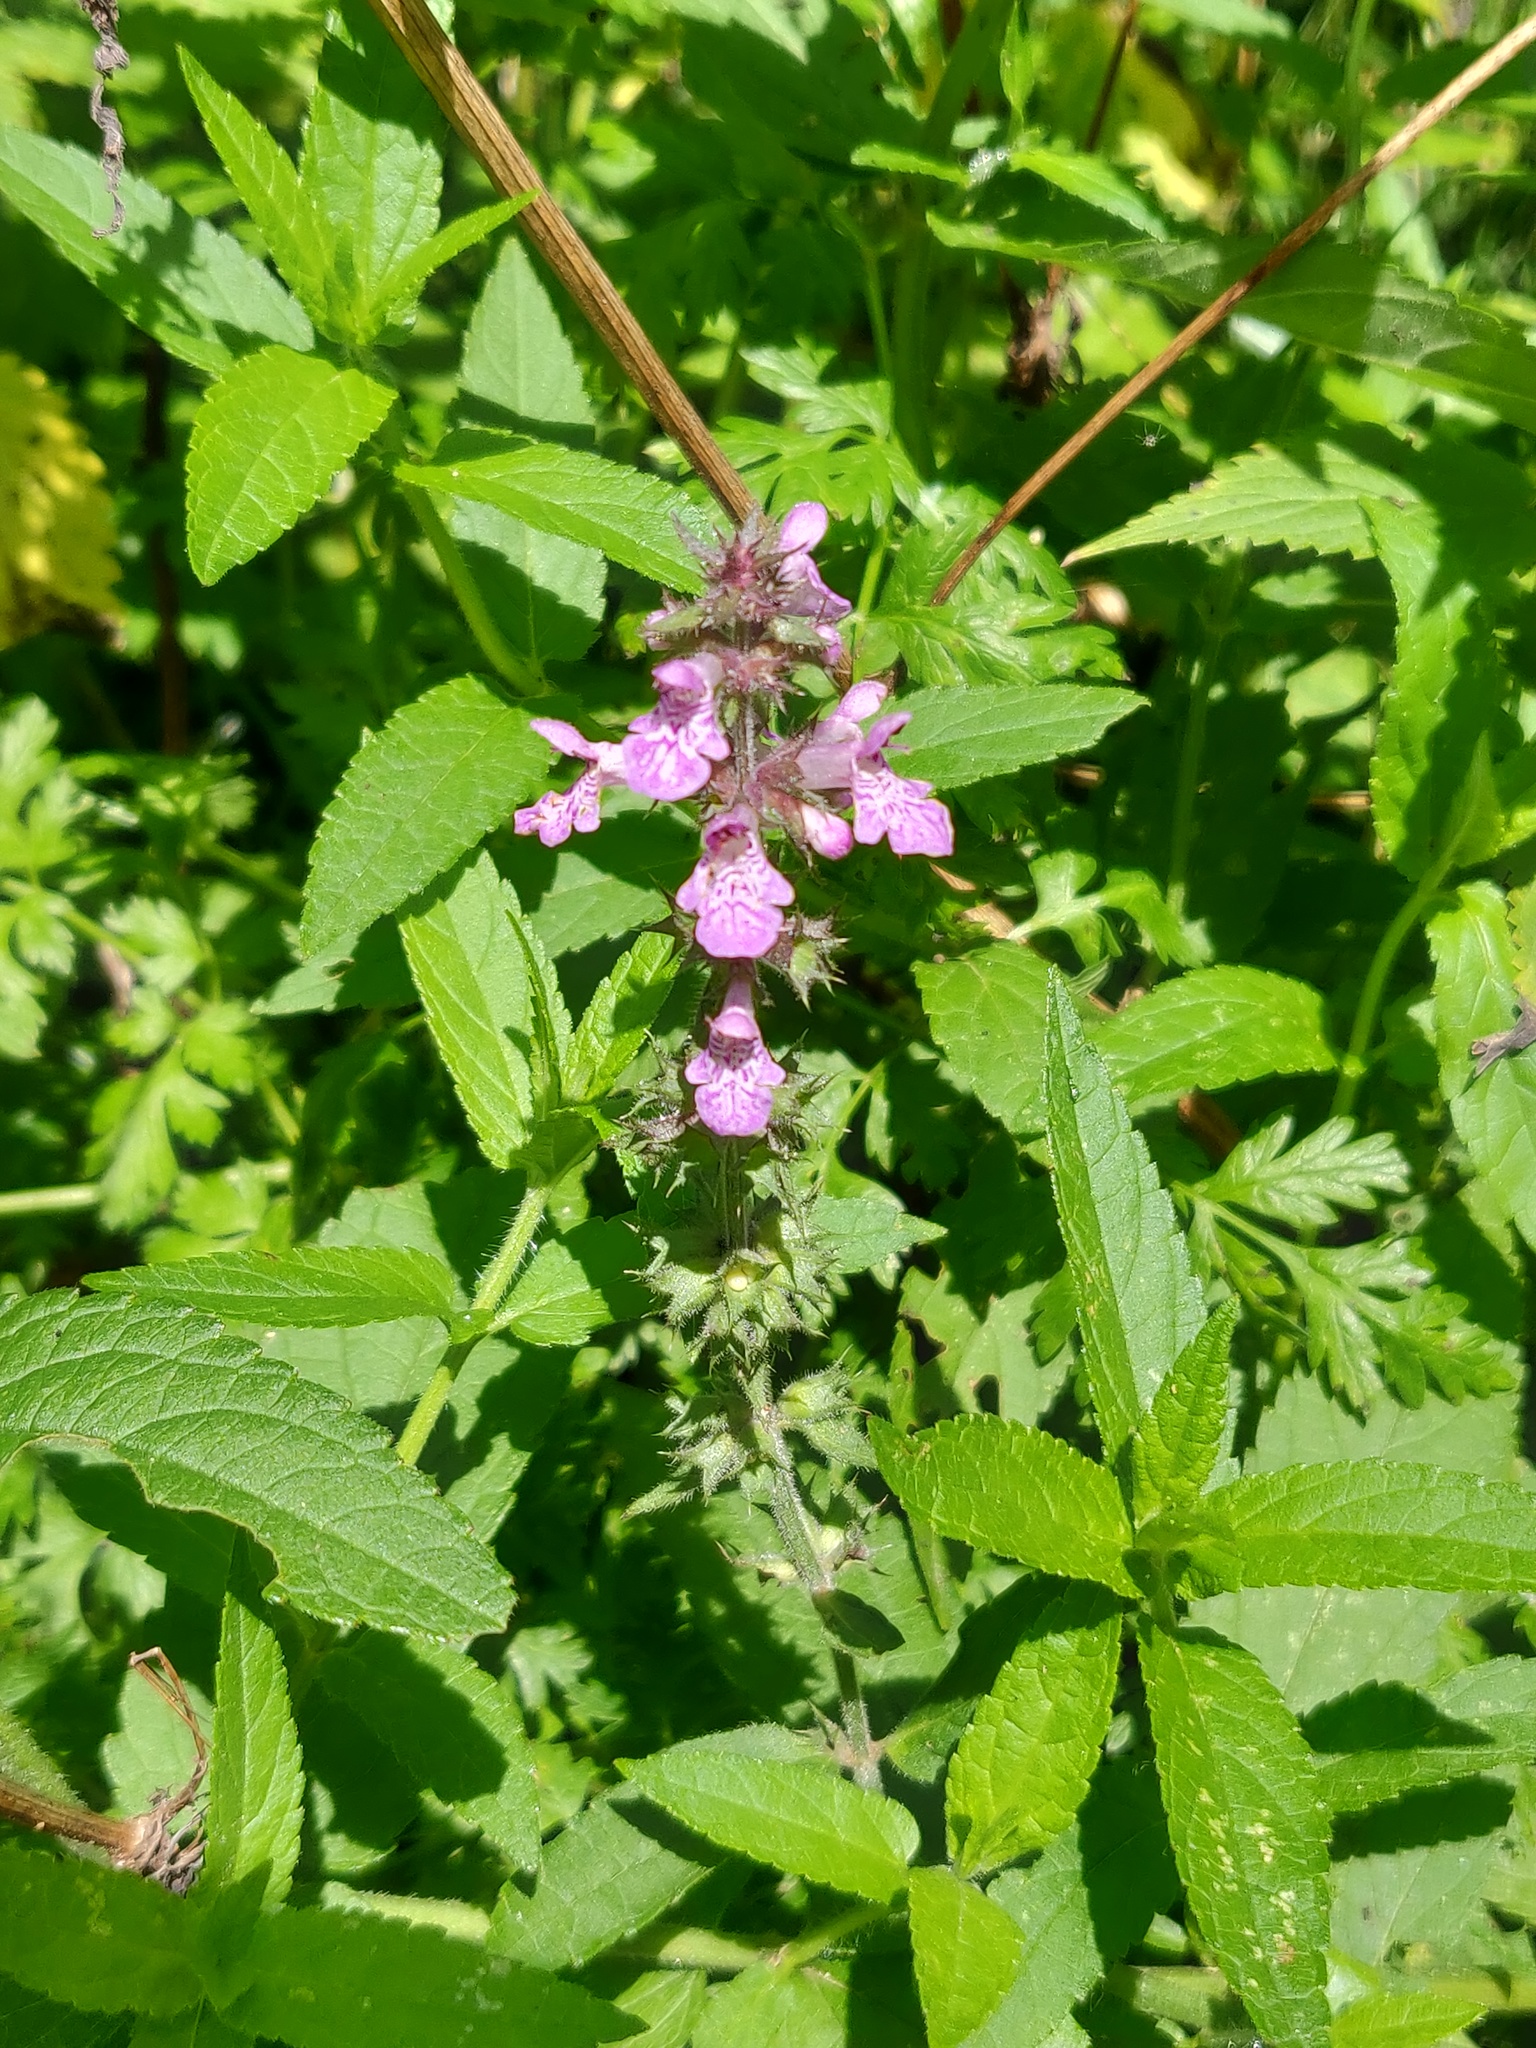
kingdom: Plantae
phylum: Tracheophyta
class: Magnoliopsida
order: Lamiales
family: Lamiaceae
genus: Stachys
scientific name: Stachys palustris
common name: Marsh woundwort
